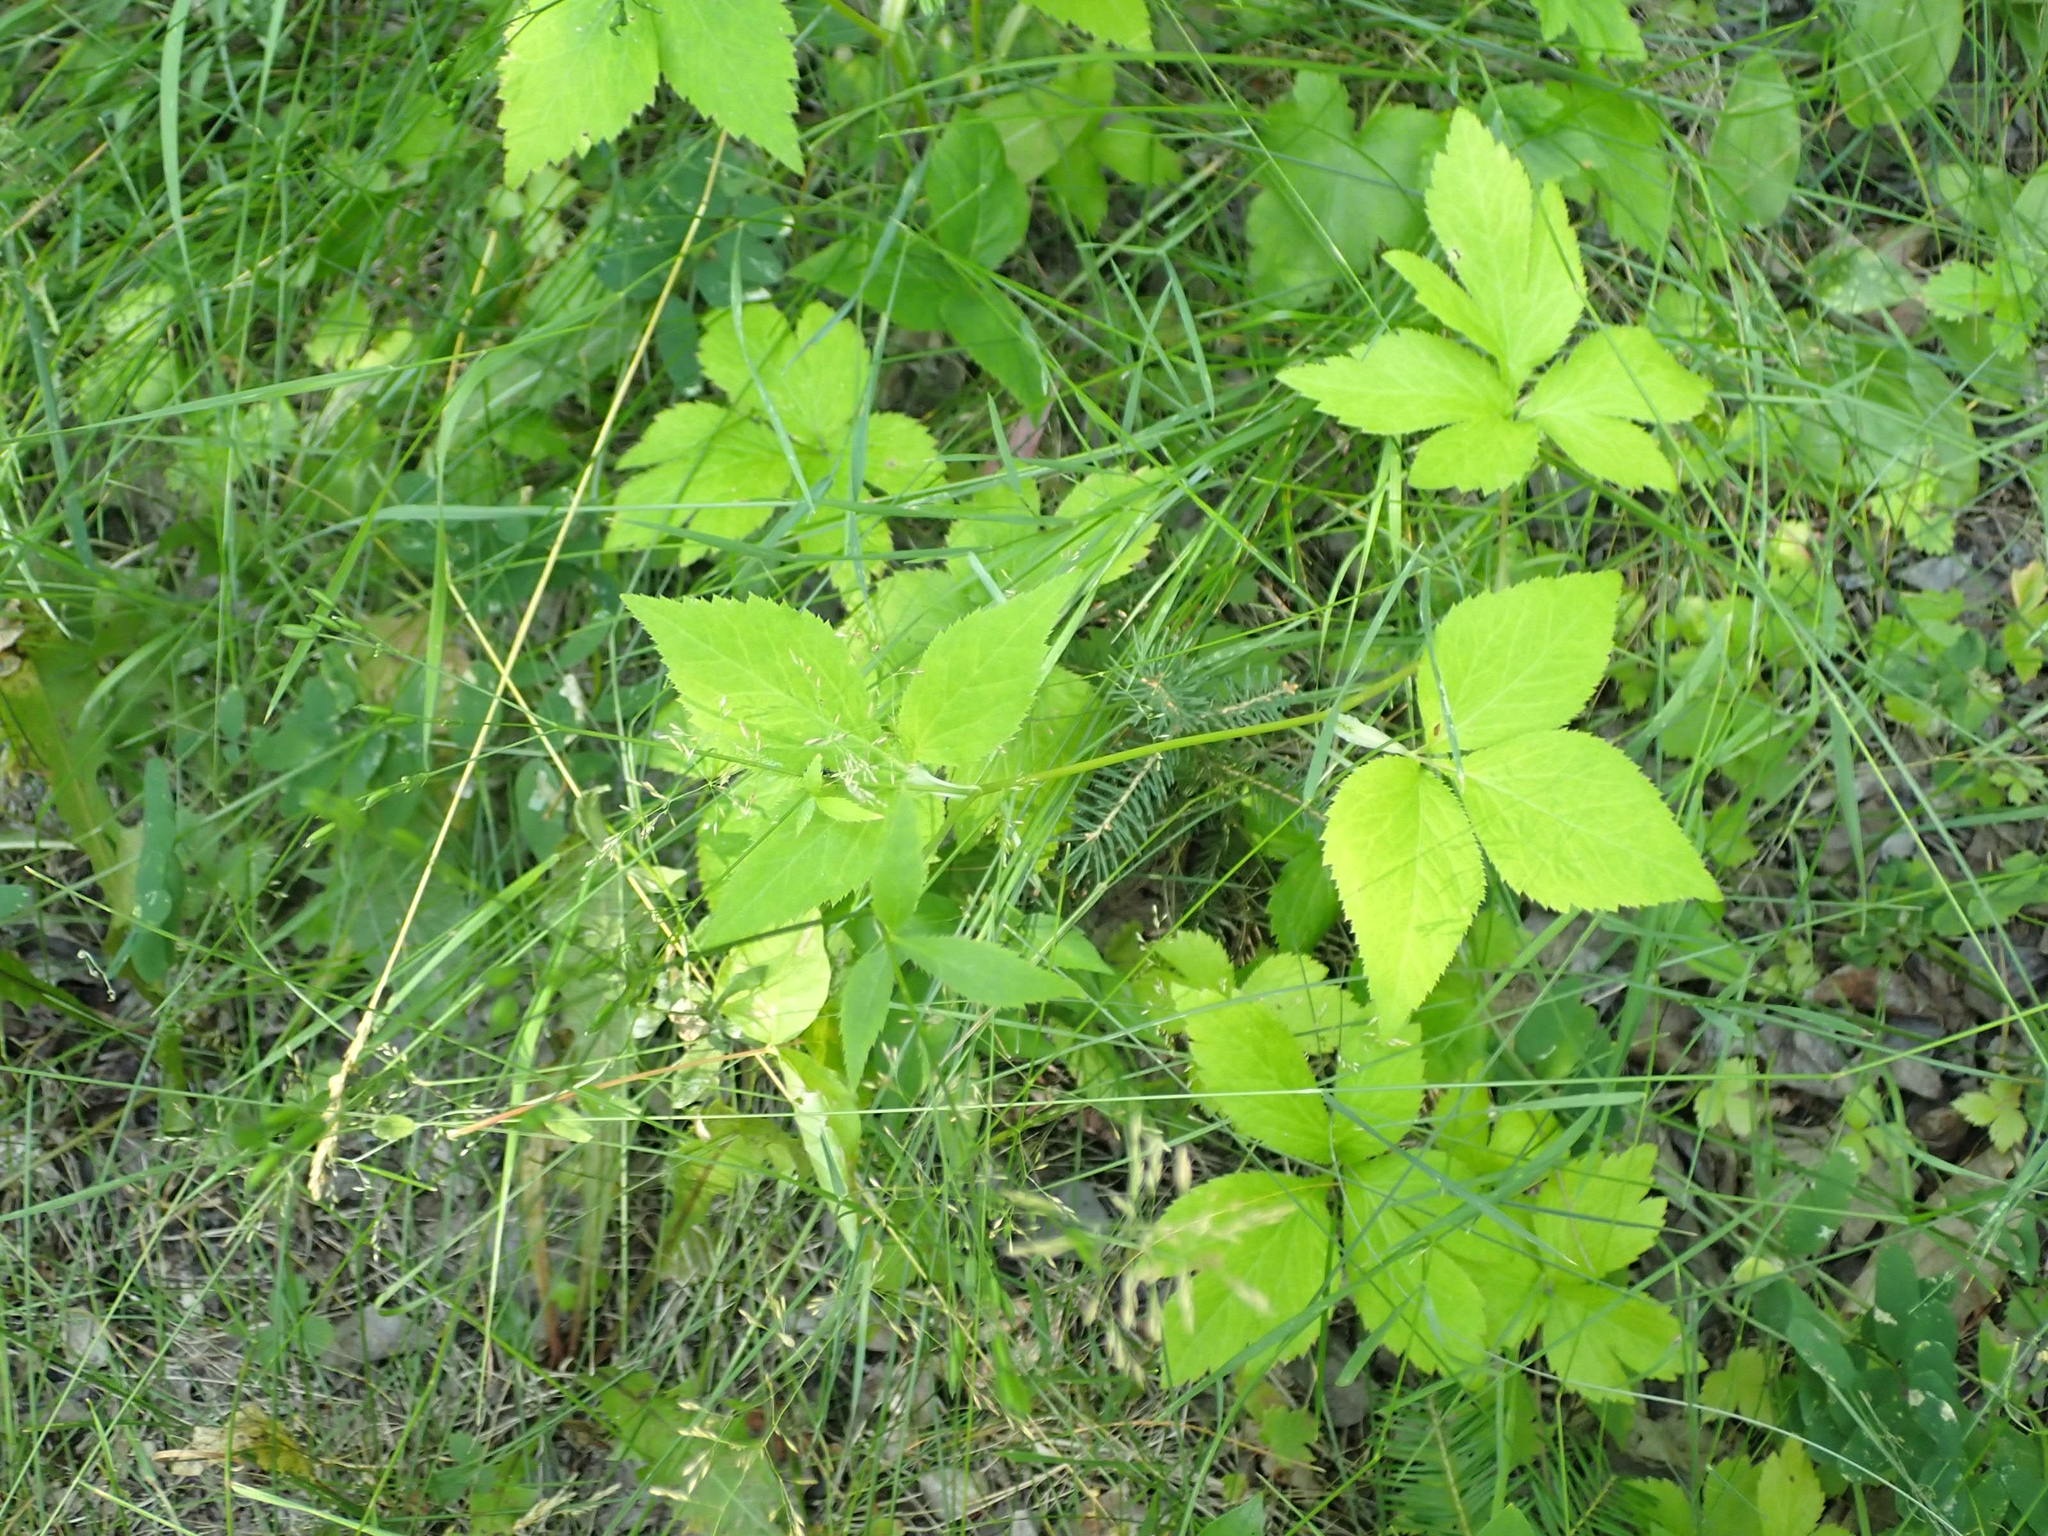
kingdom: Plantae
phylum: Tracheophyta
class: Magnoliopsida
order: Apiales
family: Apiaceae
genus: Cryptotaenia
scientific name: Cryptotaenia canadensis
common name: Honewort
